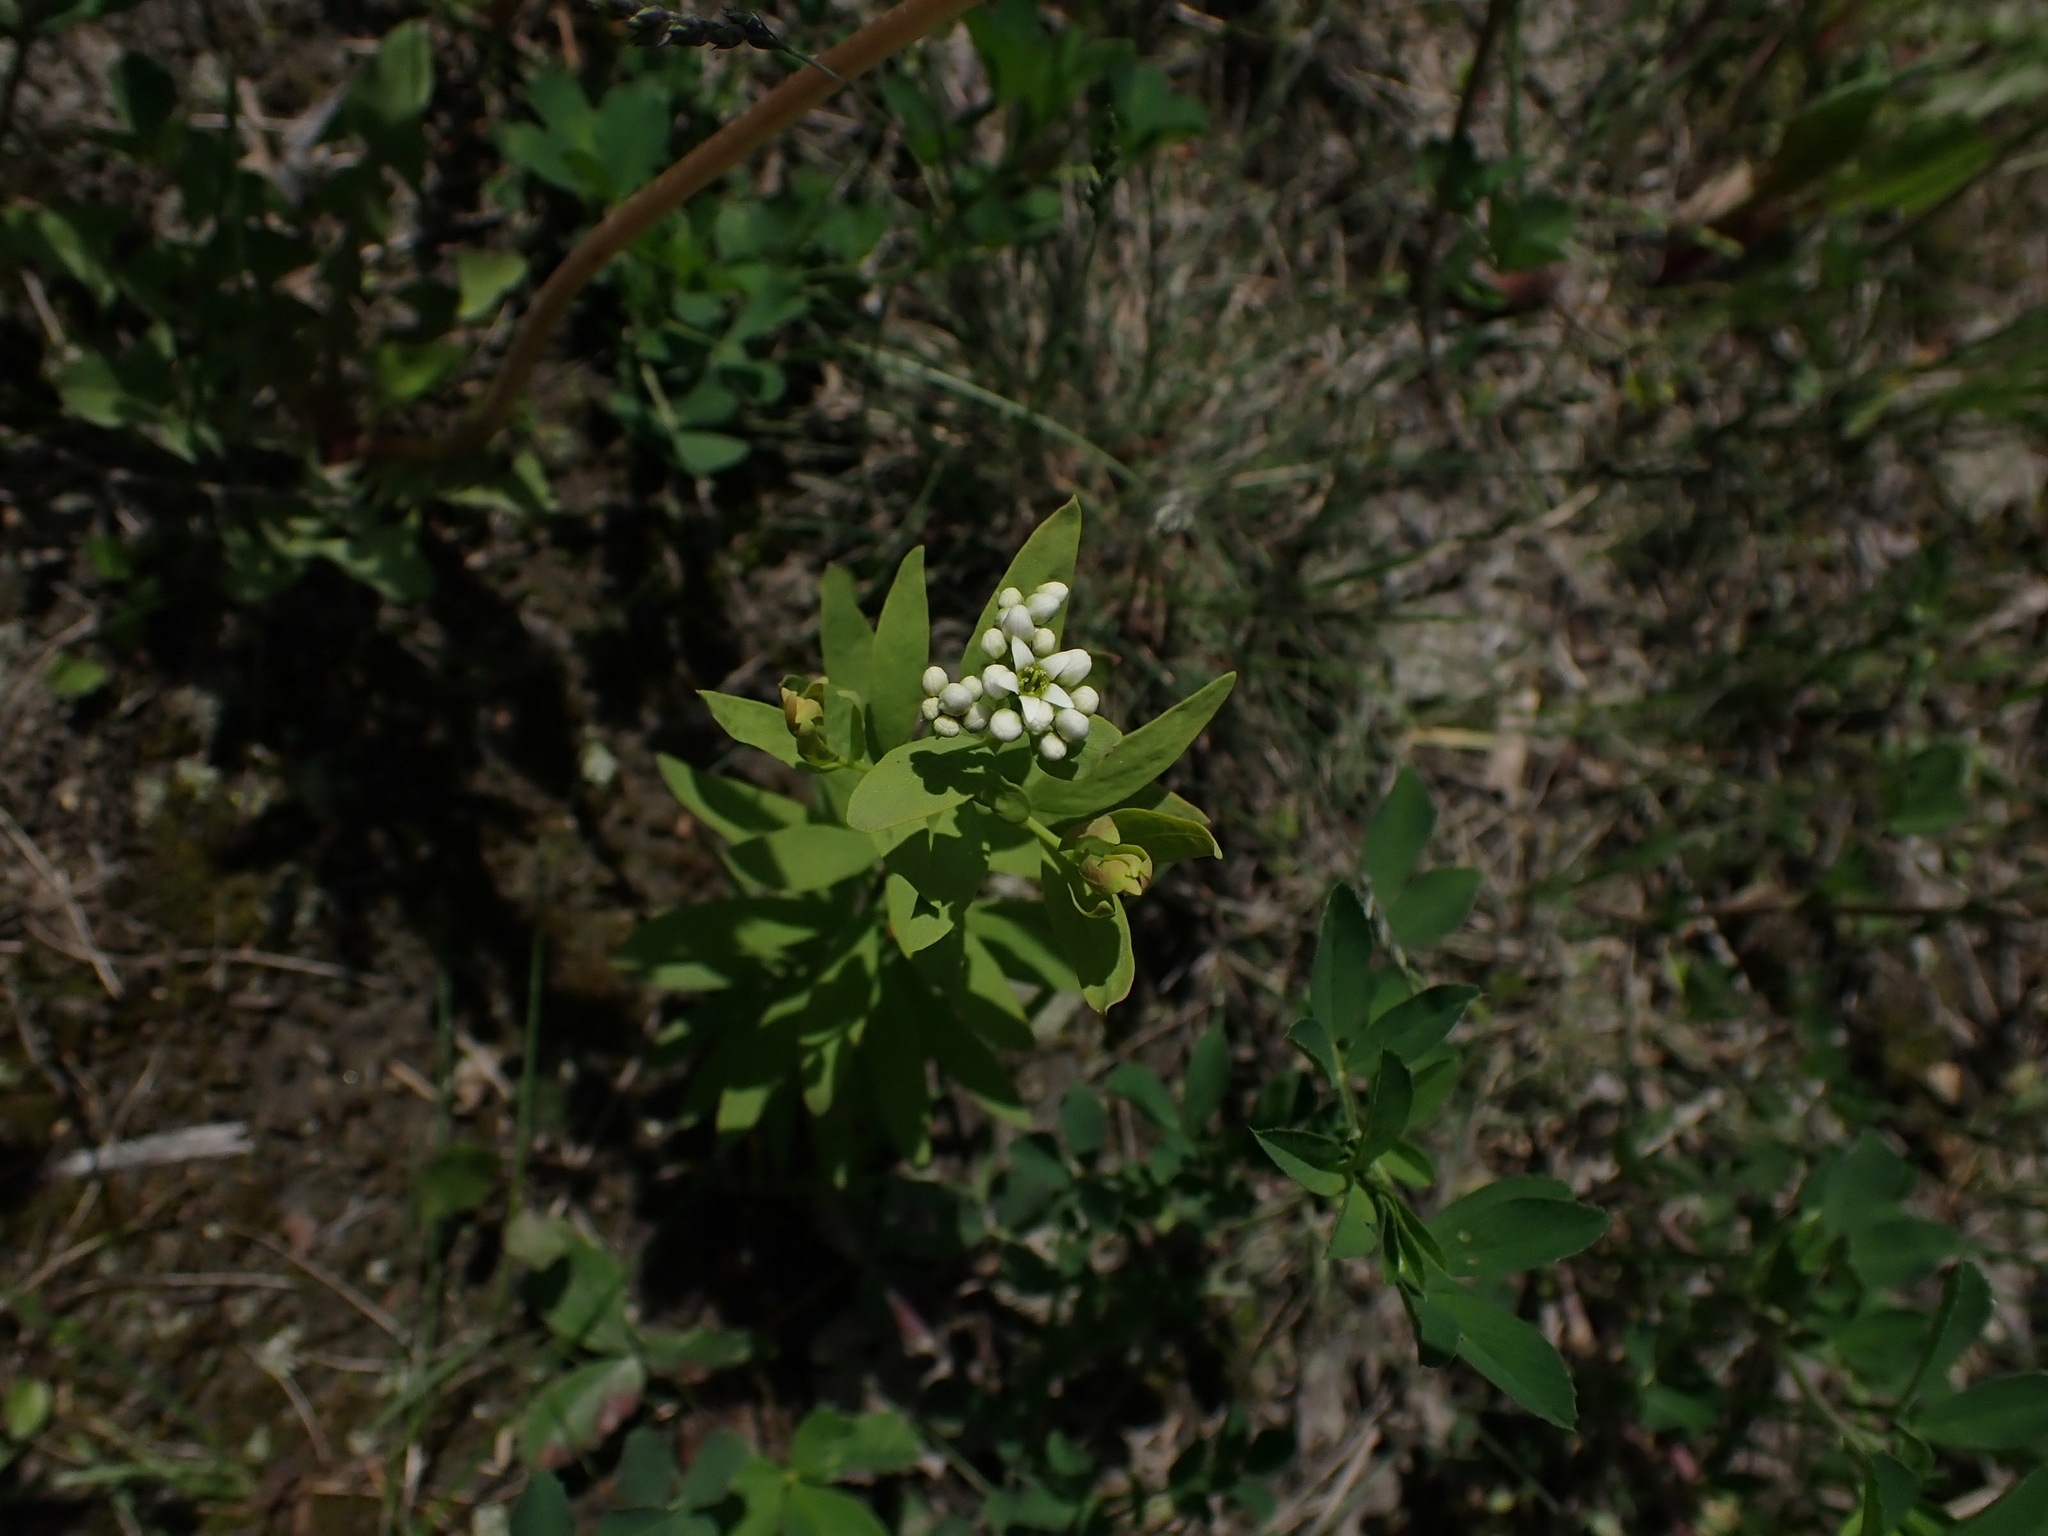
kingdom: Plantae
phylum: Tracheophyta
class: Magnoliopsida
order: Santalales
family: Comandraceae
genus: Comandra
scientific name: Comandra umbellata
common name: Bastard toadflax
